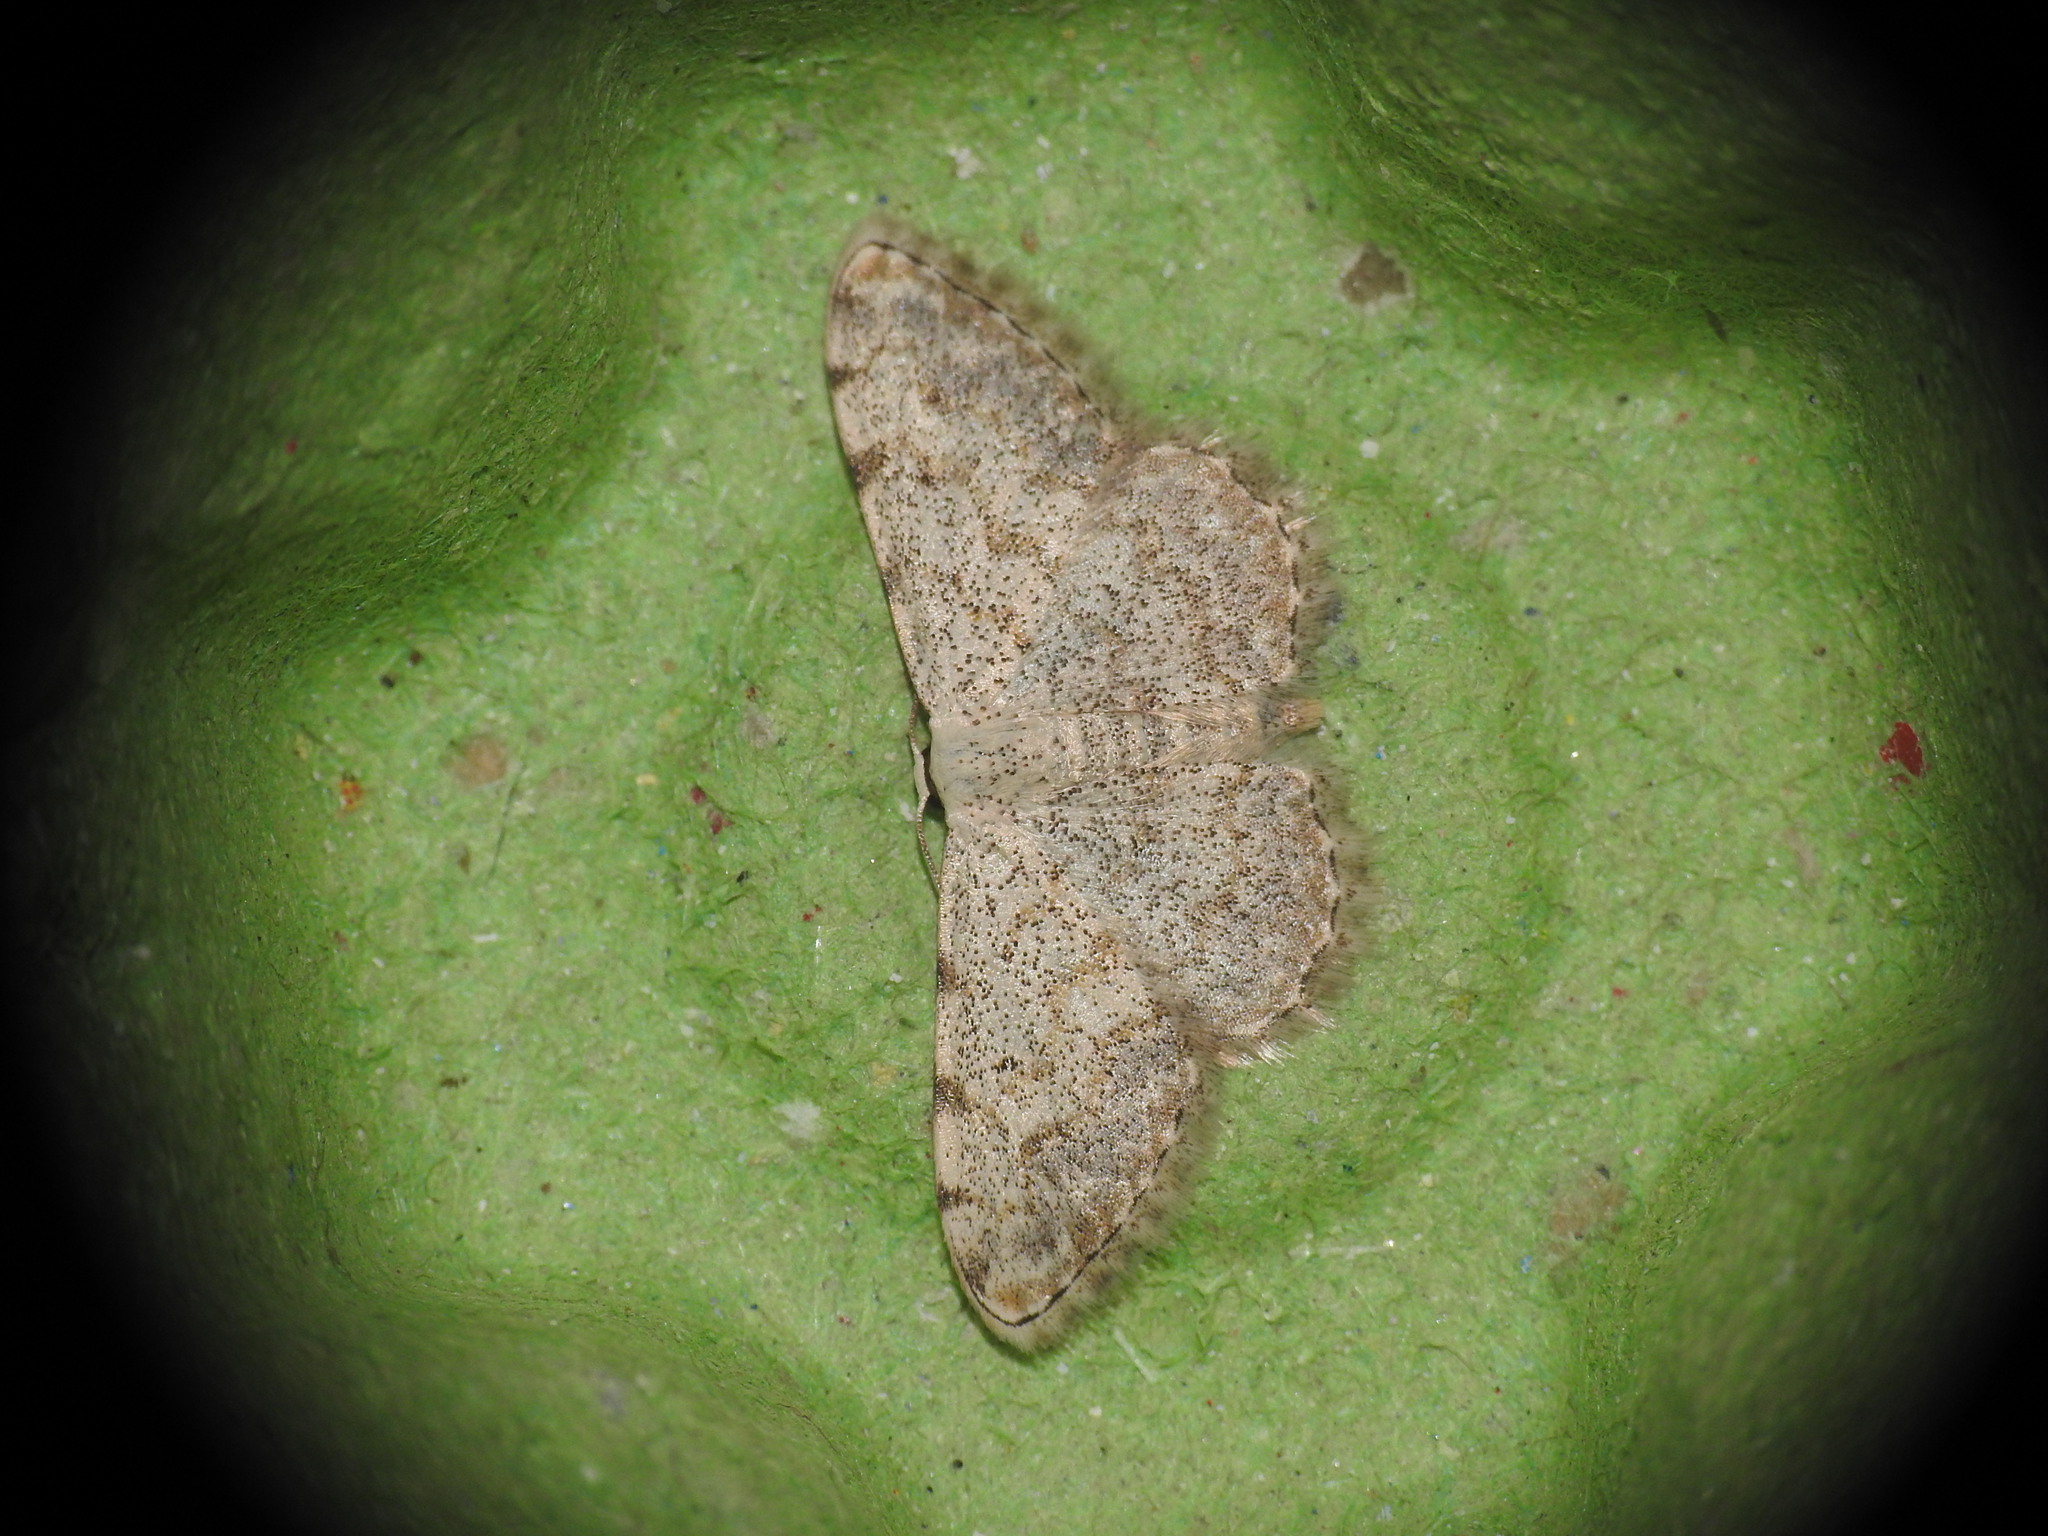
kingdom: Animalia
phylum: Arthropoda
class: Insecta
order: Lepidoptera
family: Geometridae
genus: Scopula
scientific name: Scopula submutata
